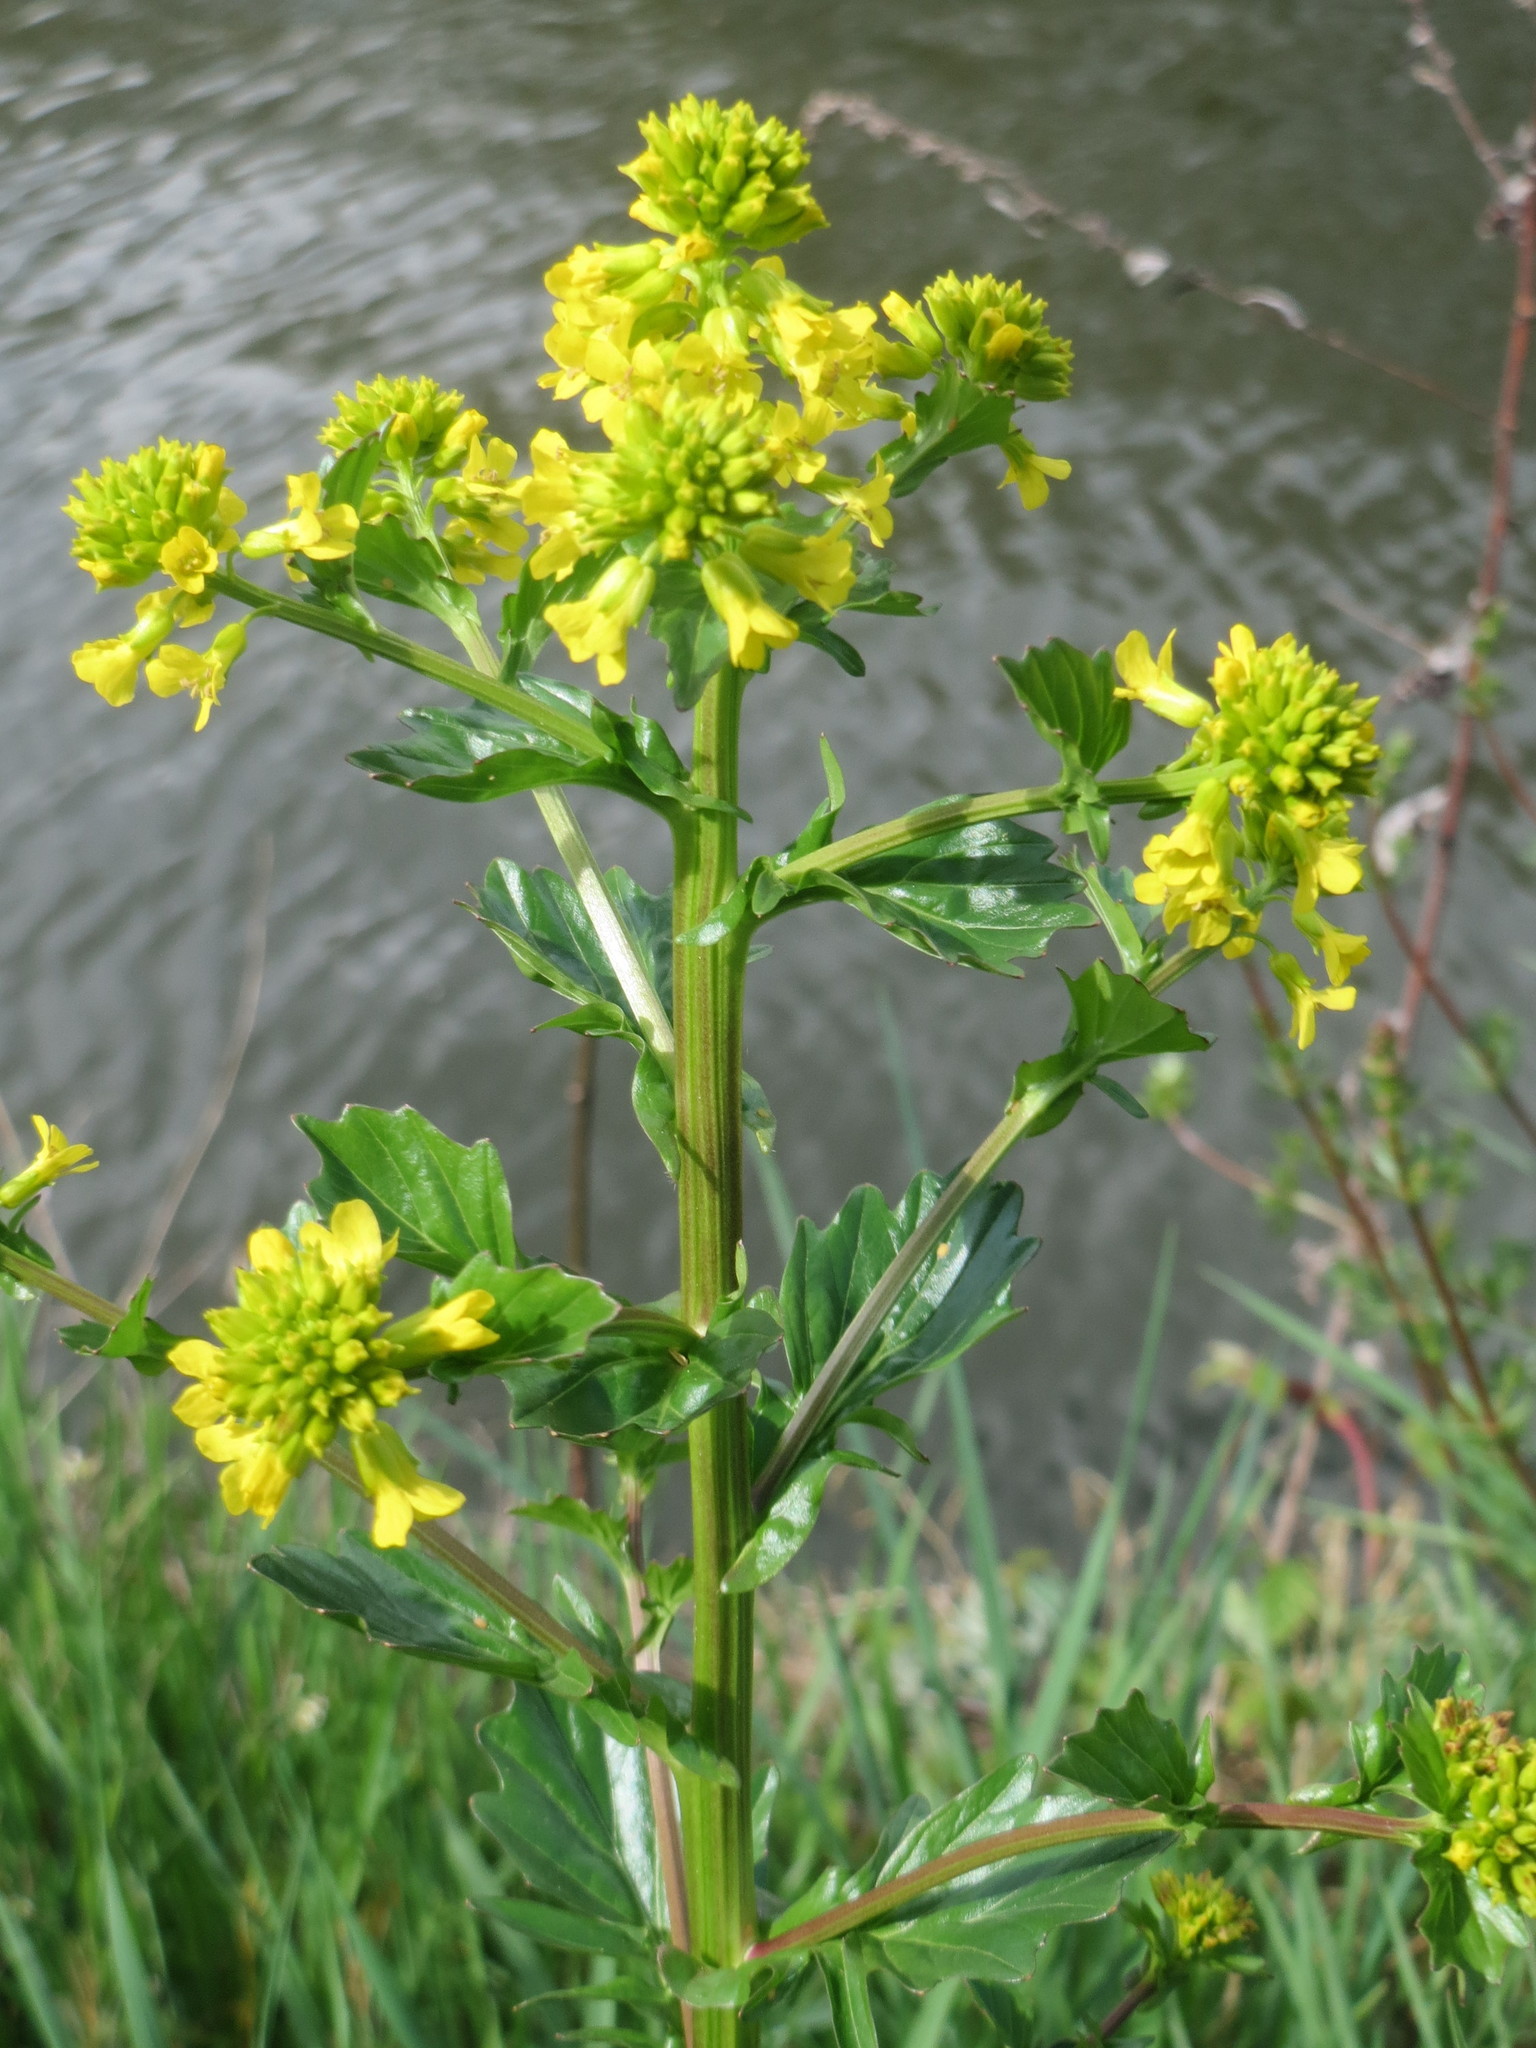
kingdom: Plantae
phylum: Tracheophyta
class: Magnoliopsida
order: Brassicales
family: Brassicaceae
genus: Barbarea
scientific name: Barbarea vulgaris
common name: Cressy-greens
